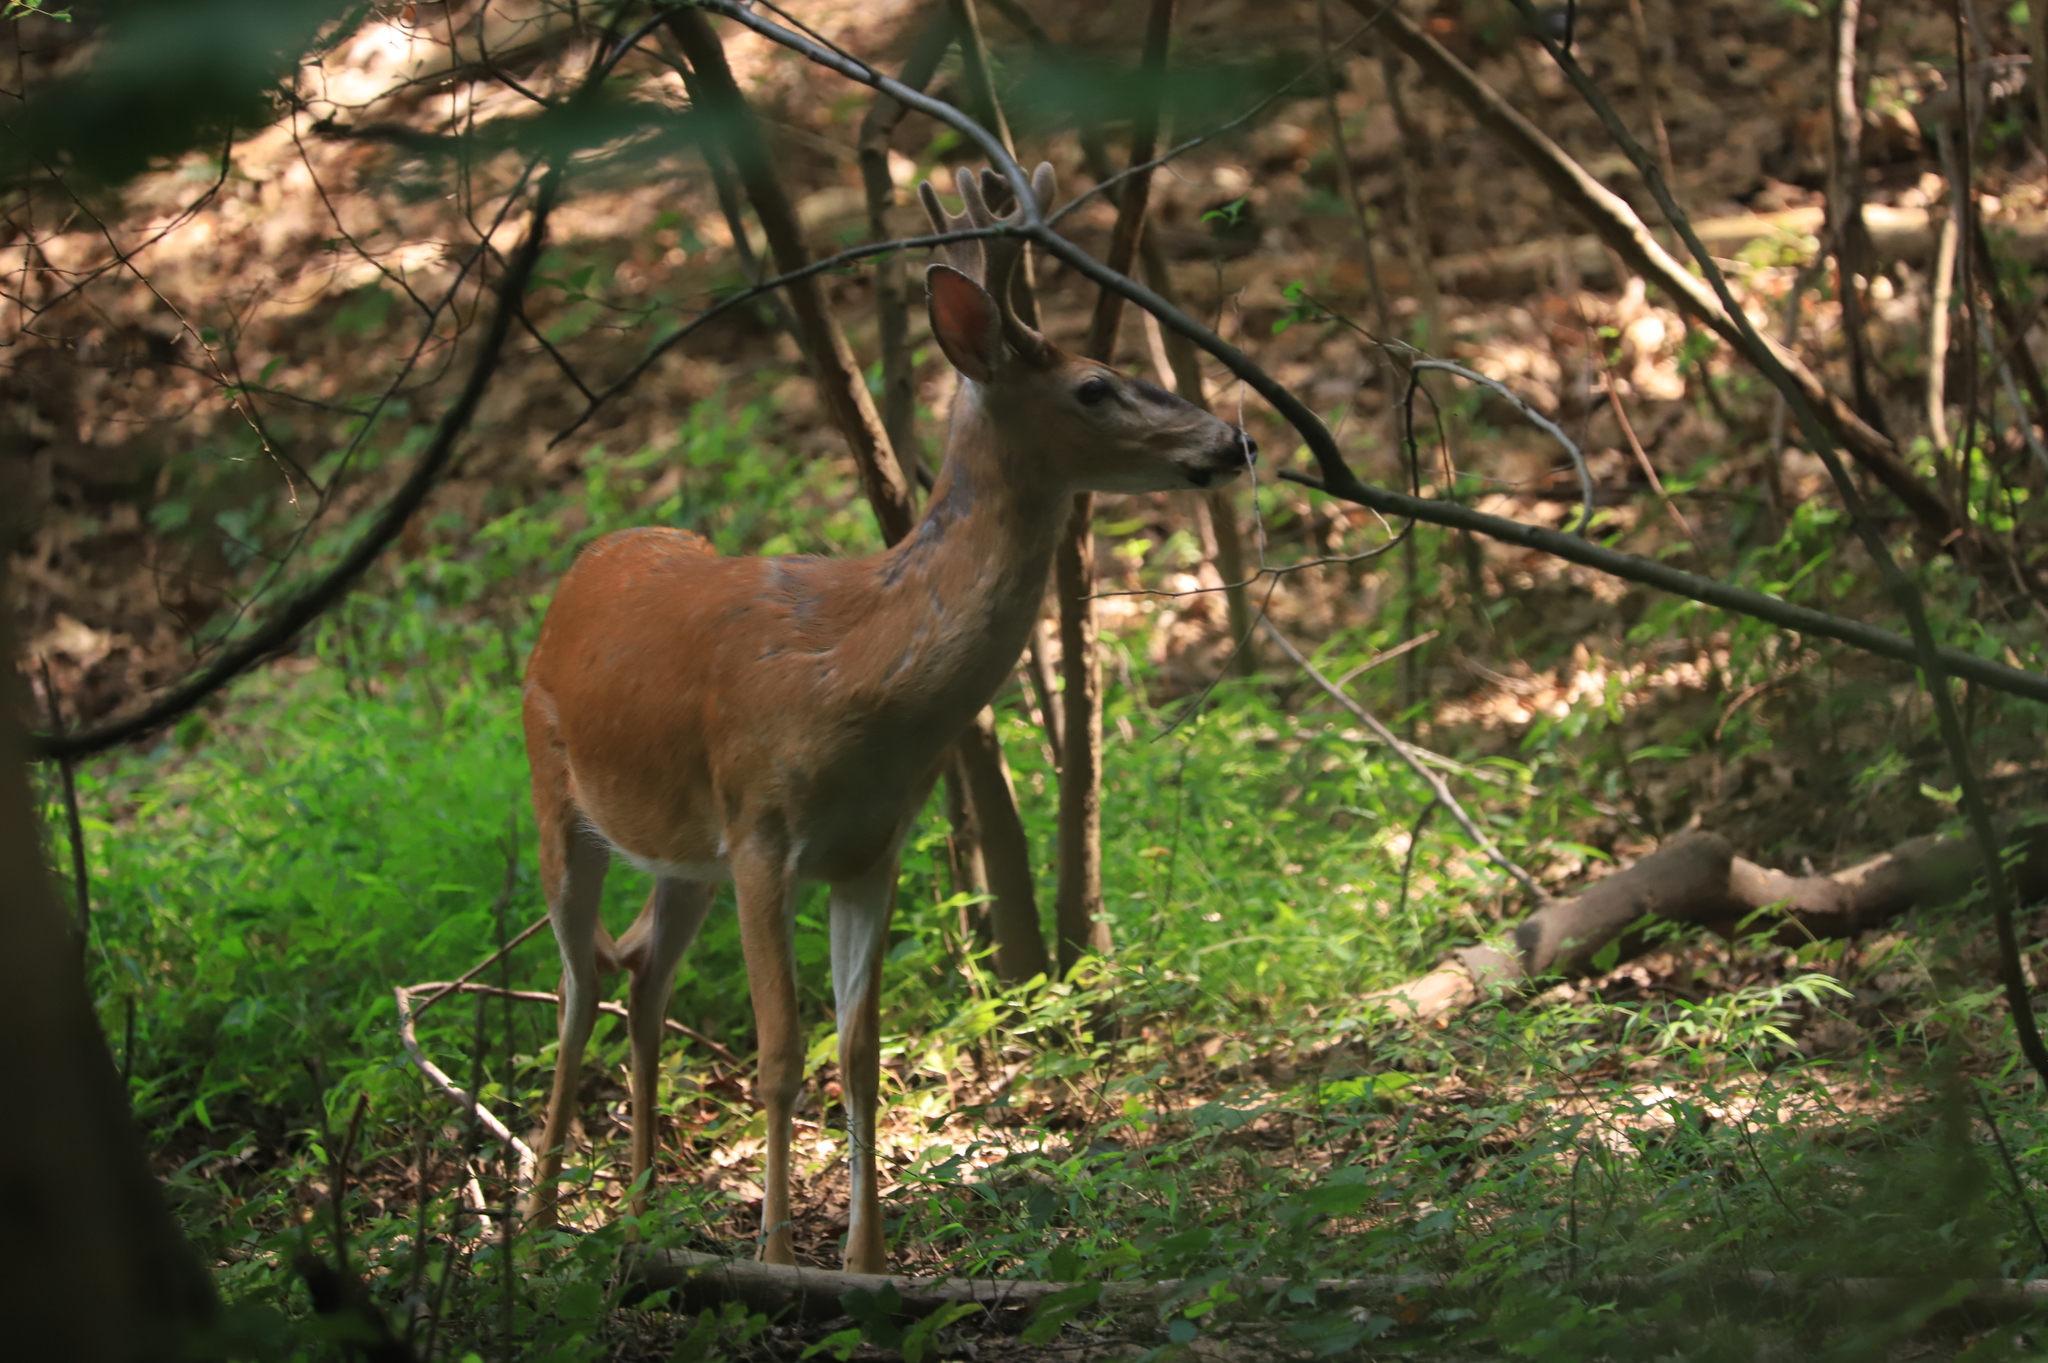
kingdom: Animalia
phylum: Chordata
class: Mammalia
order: Artiodactyla
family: Cervidae
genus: Odocoileus
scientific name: Odocoileus virginianus
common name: White-tailed deer
